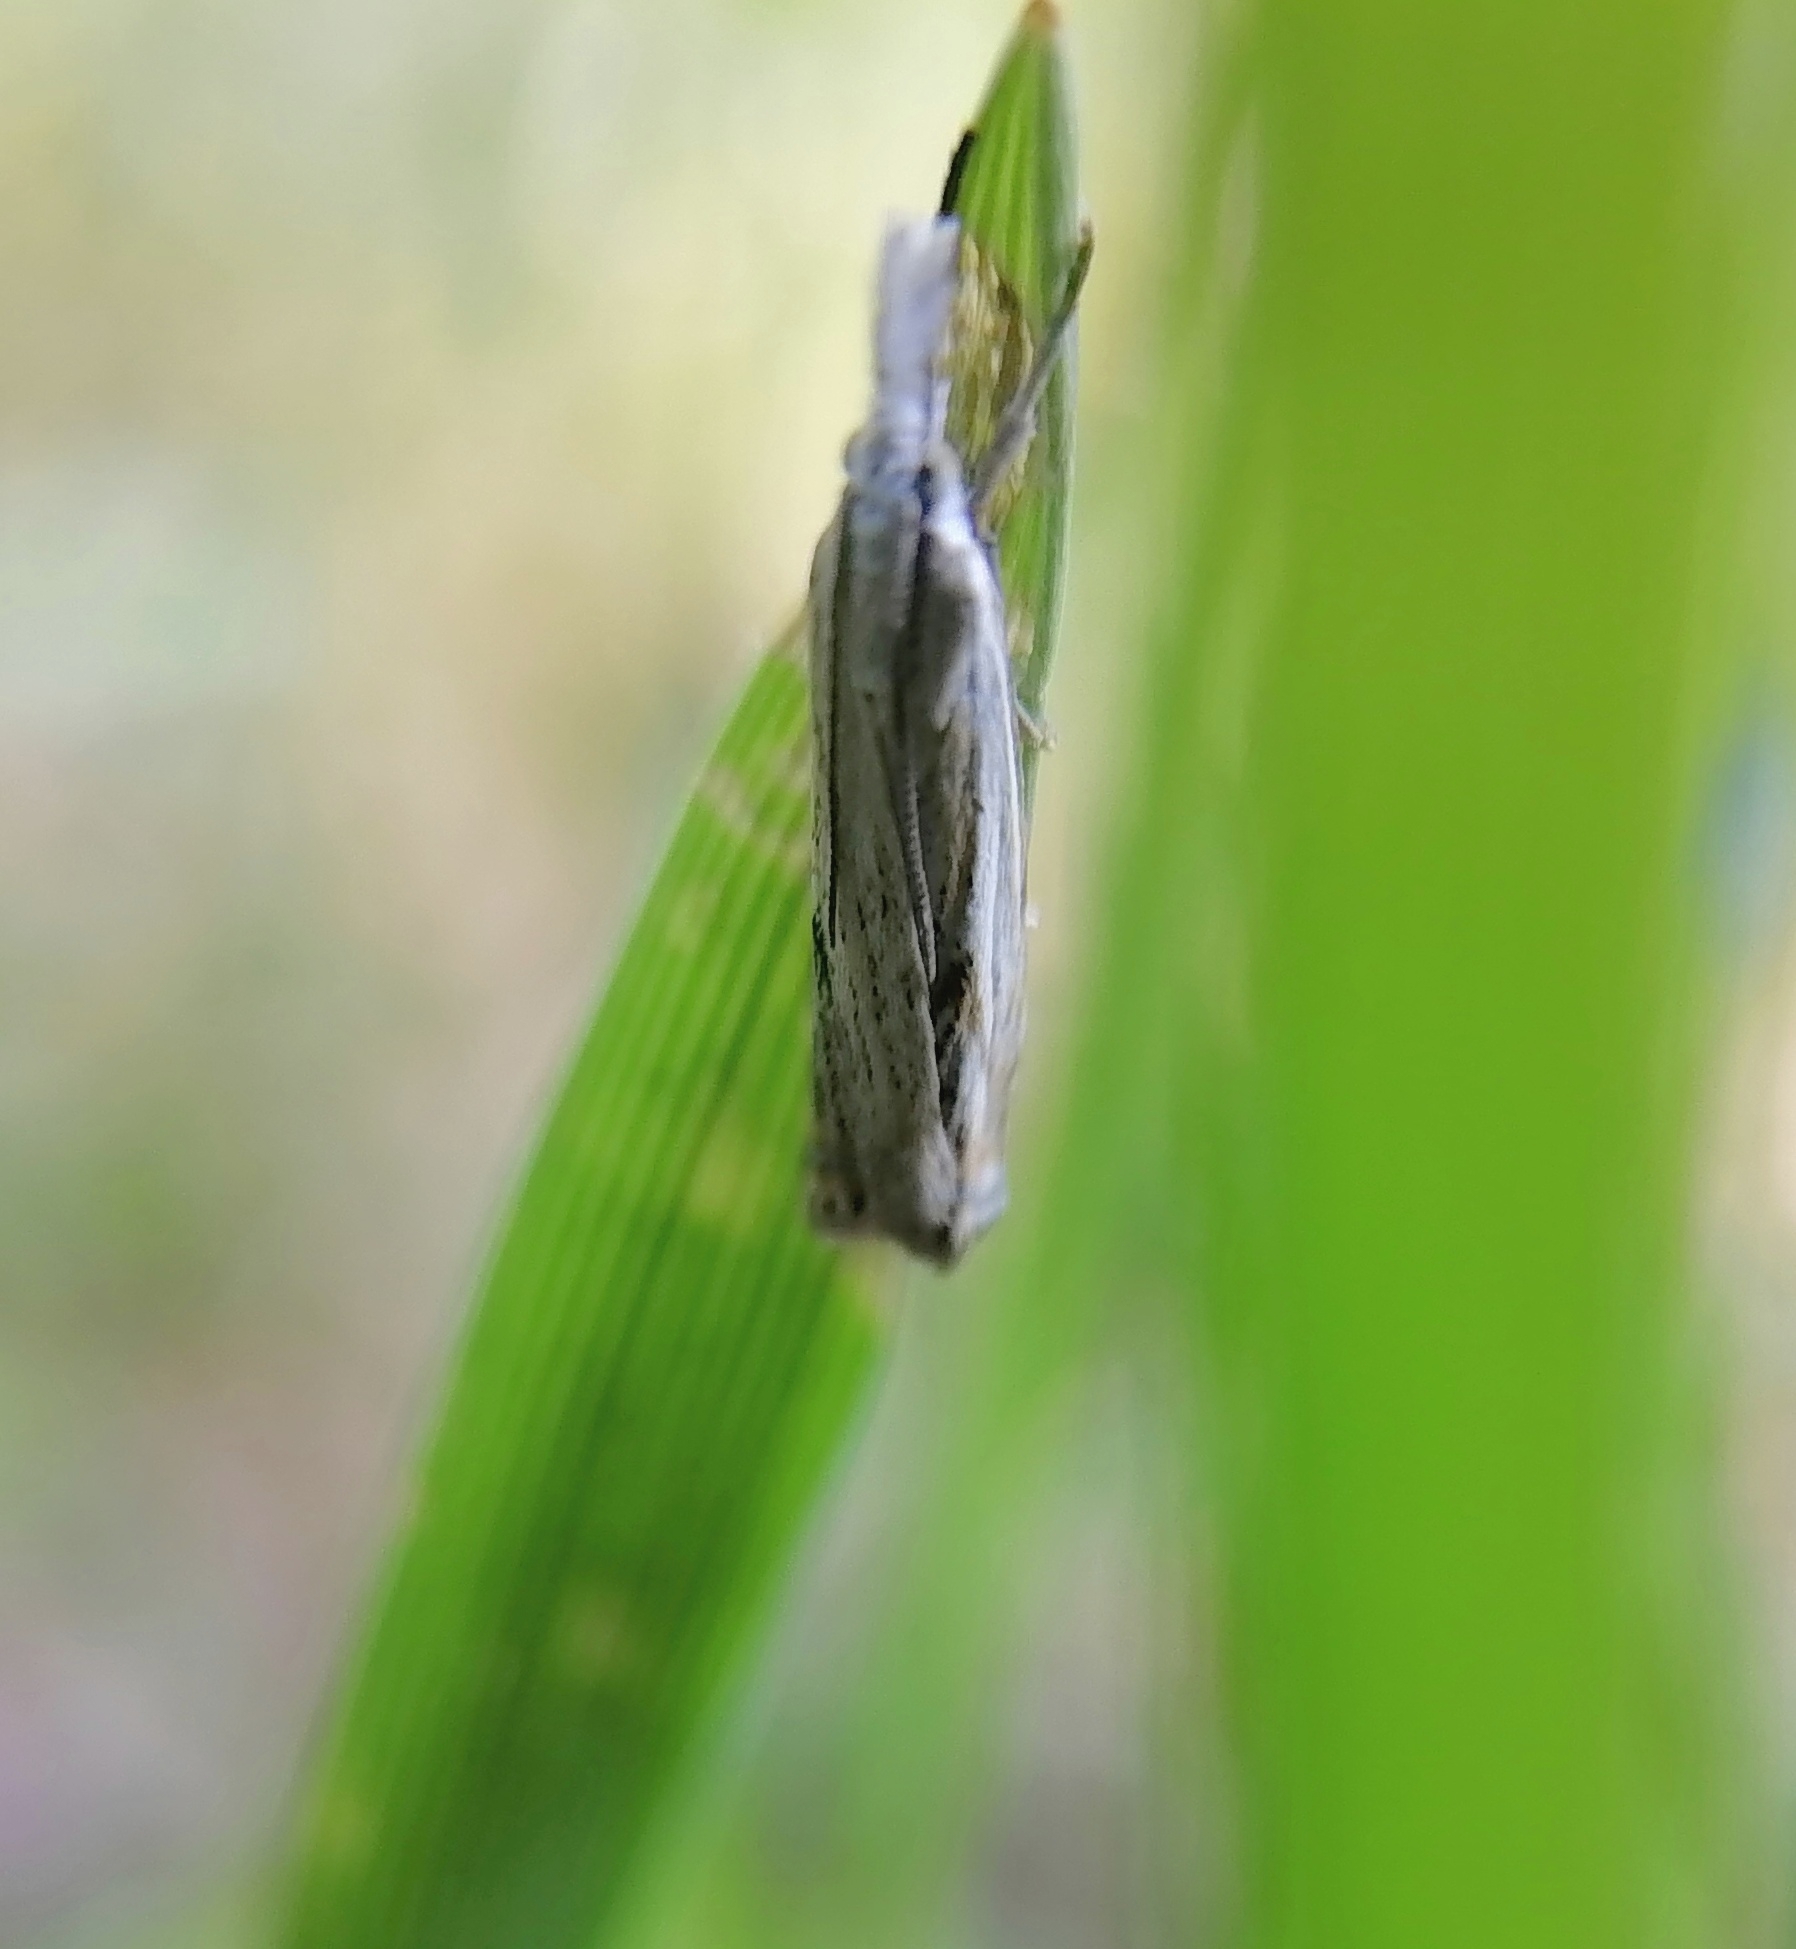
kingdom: Animalia
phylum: Arthropoda
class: Insecta
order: Lepidoptera
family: Crambidae
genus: Crambus
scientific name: Crambus nemorella
